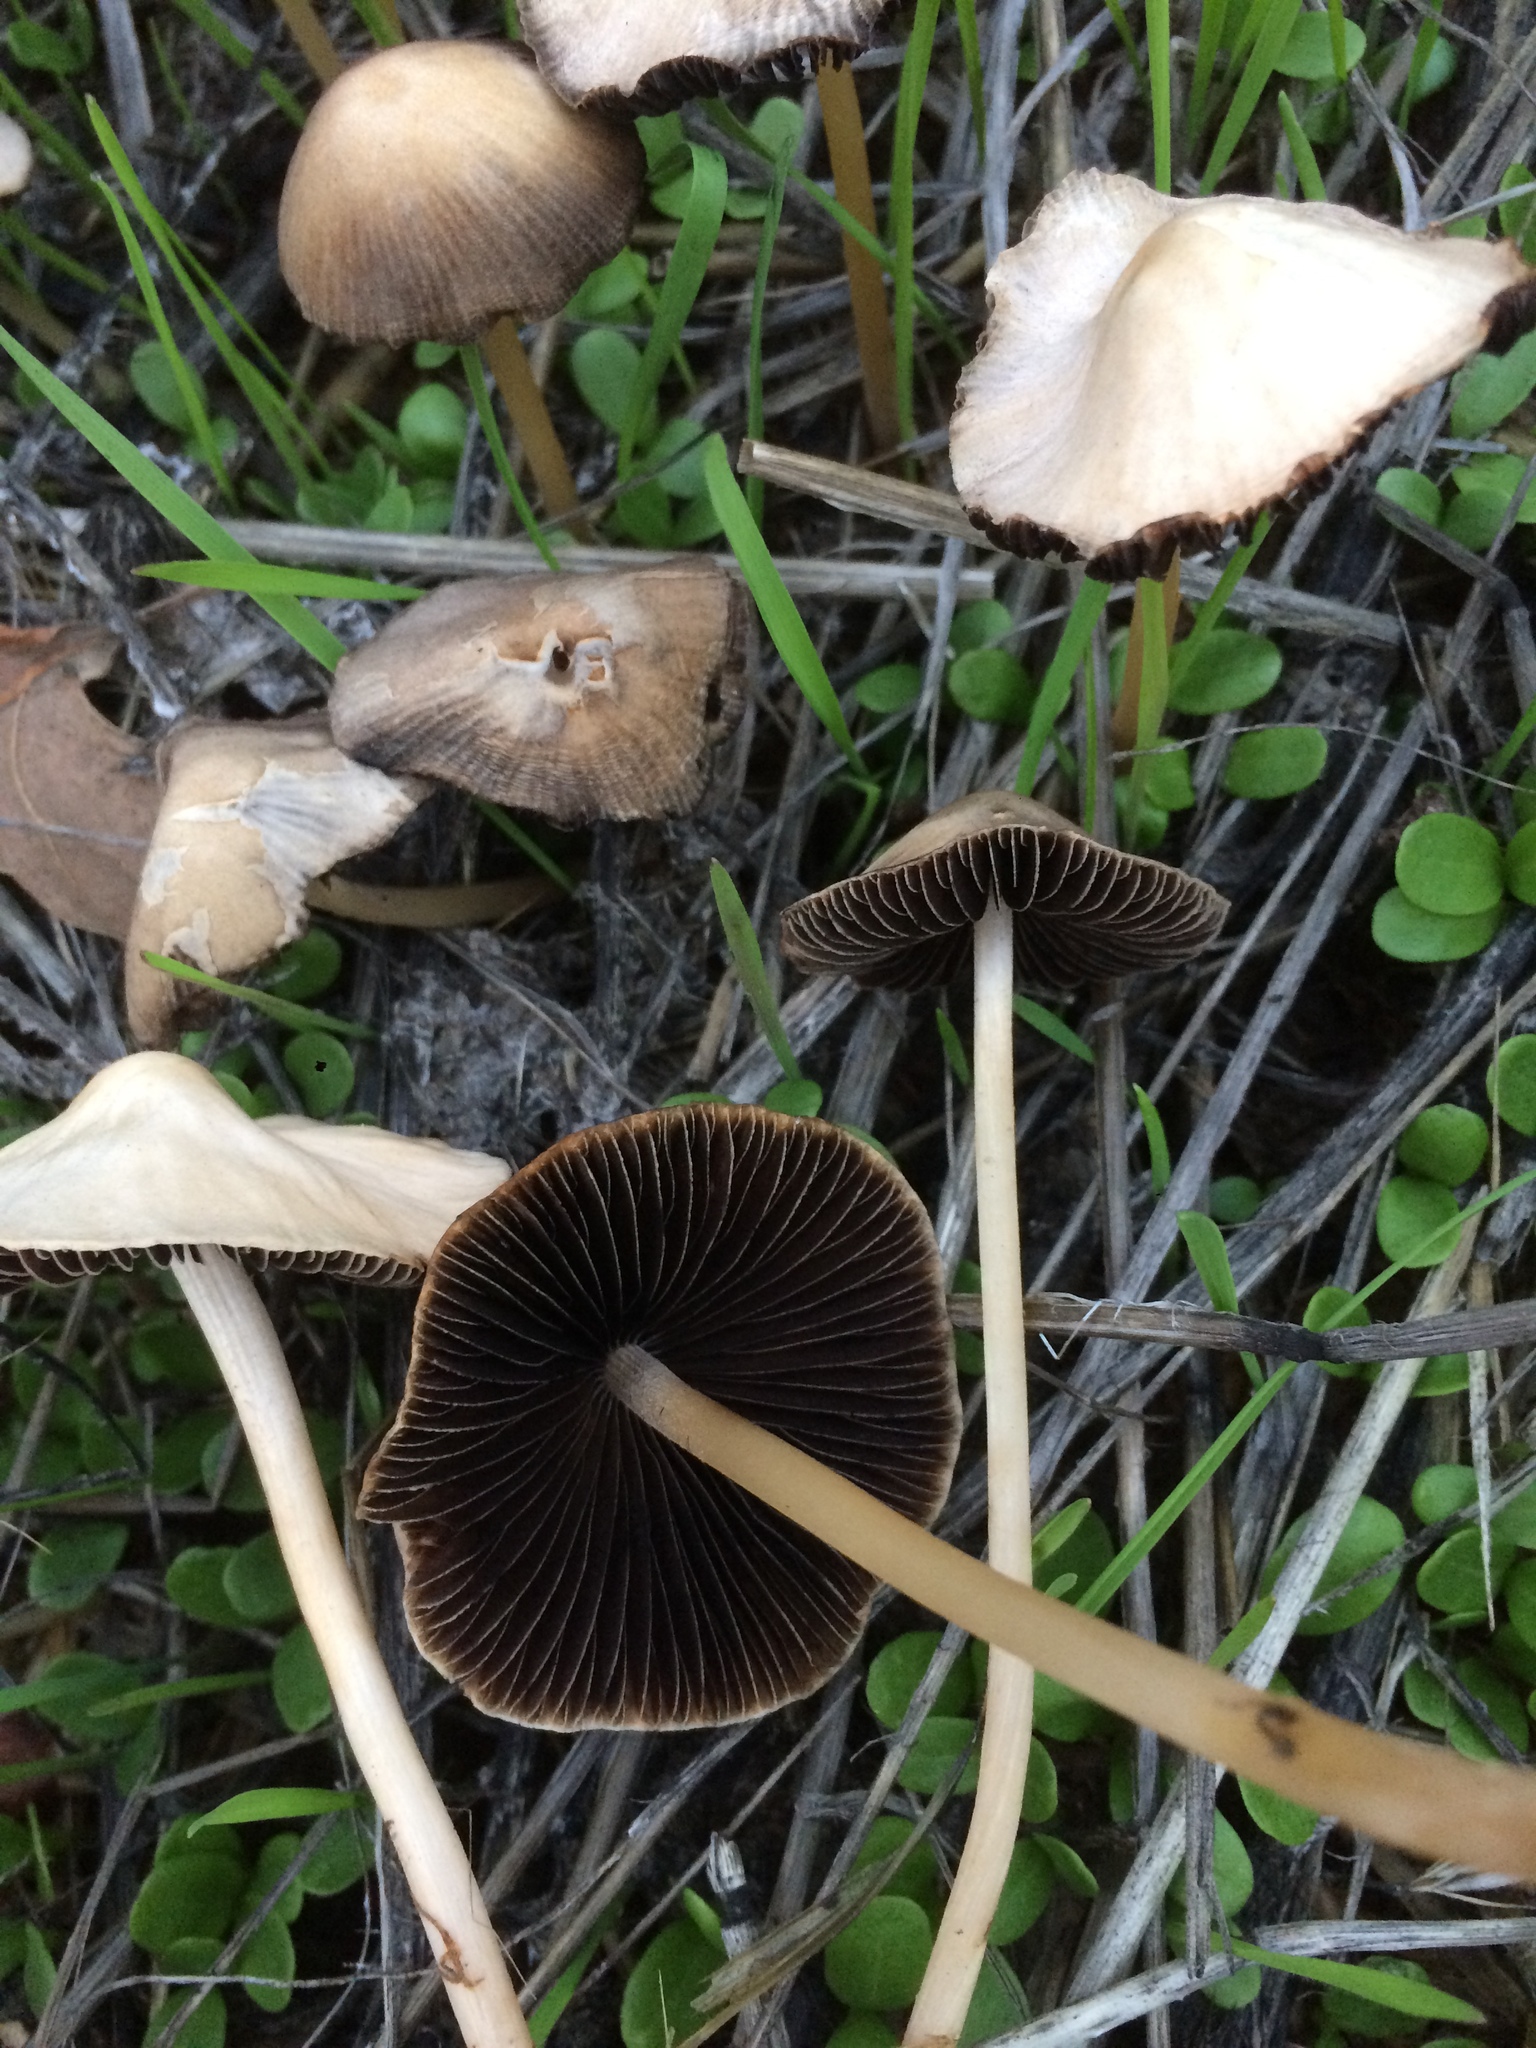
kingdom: Fungi
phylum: Basidiomycota
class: Agaricomycetes
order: Agaricales
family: Psathyrellaceae
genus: Psathyrella
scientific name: Psathyrella corrugis
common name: Red edge brittlestem
